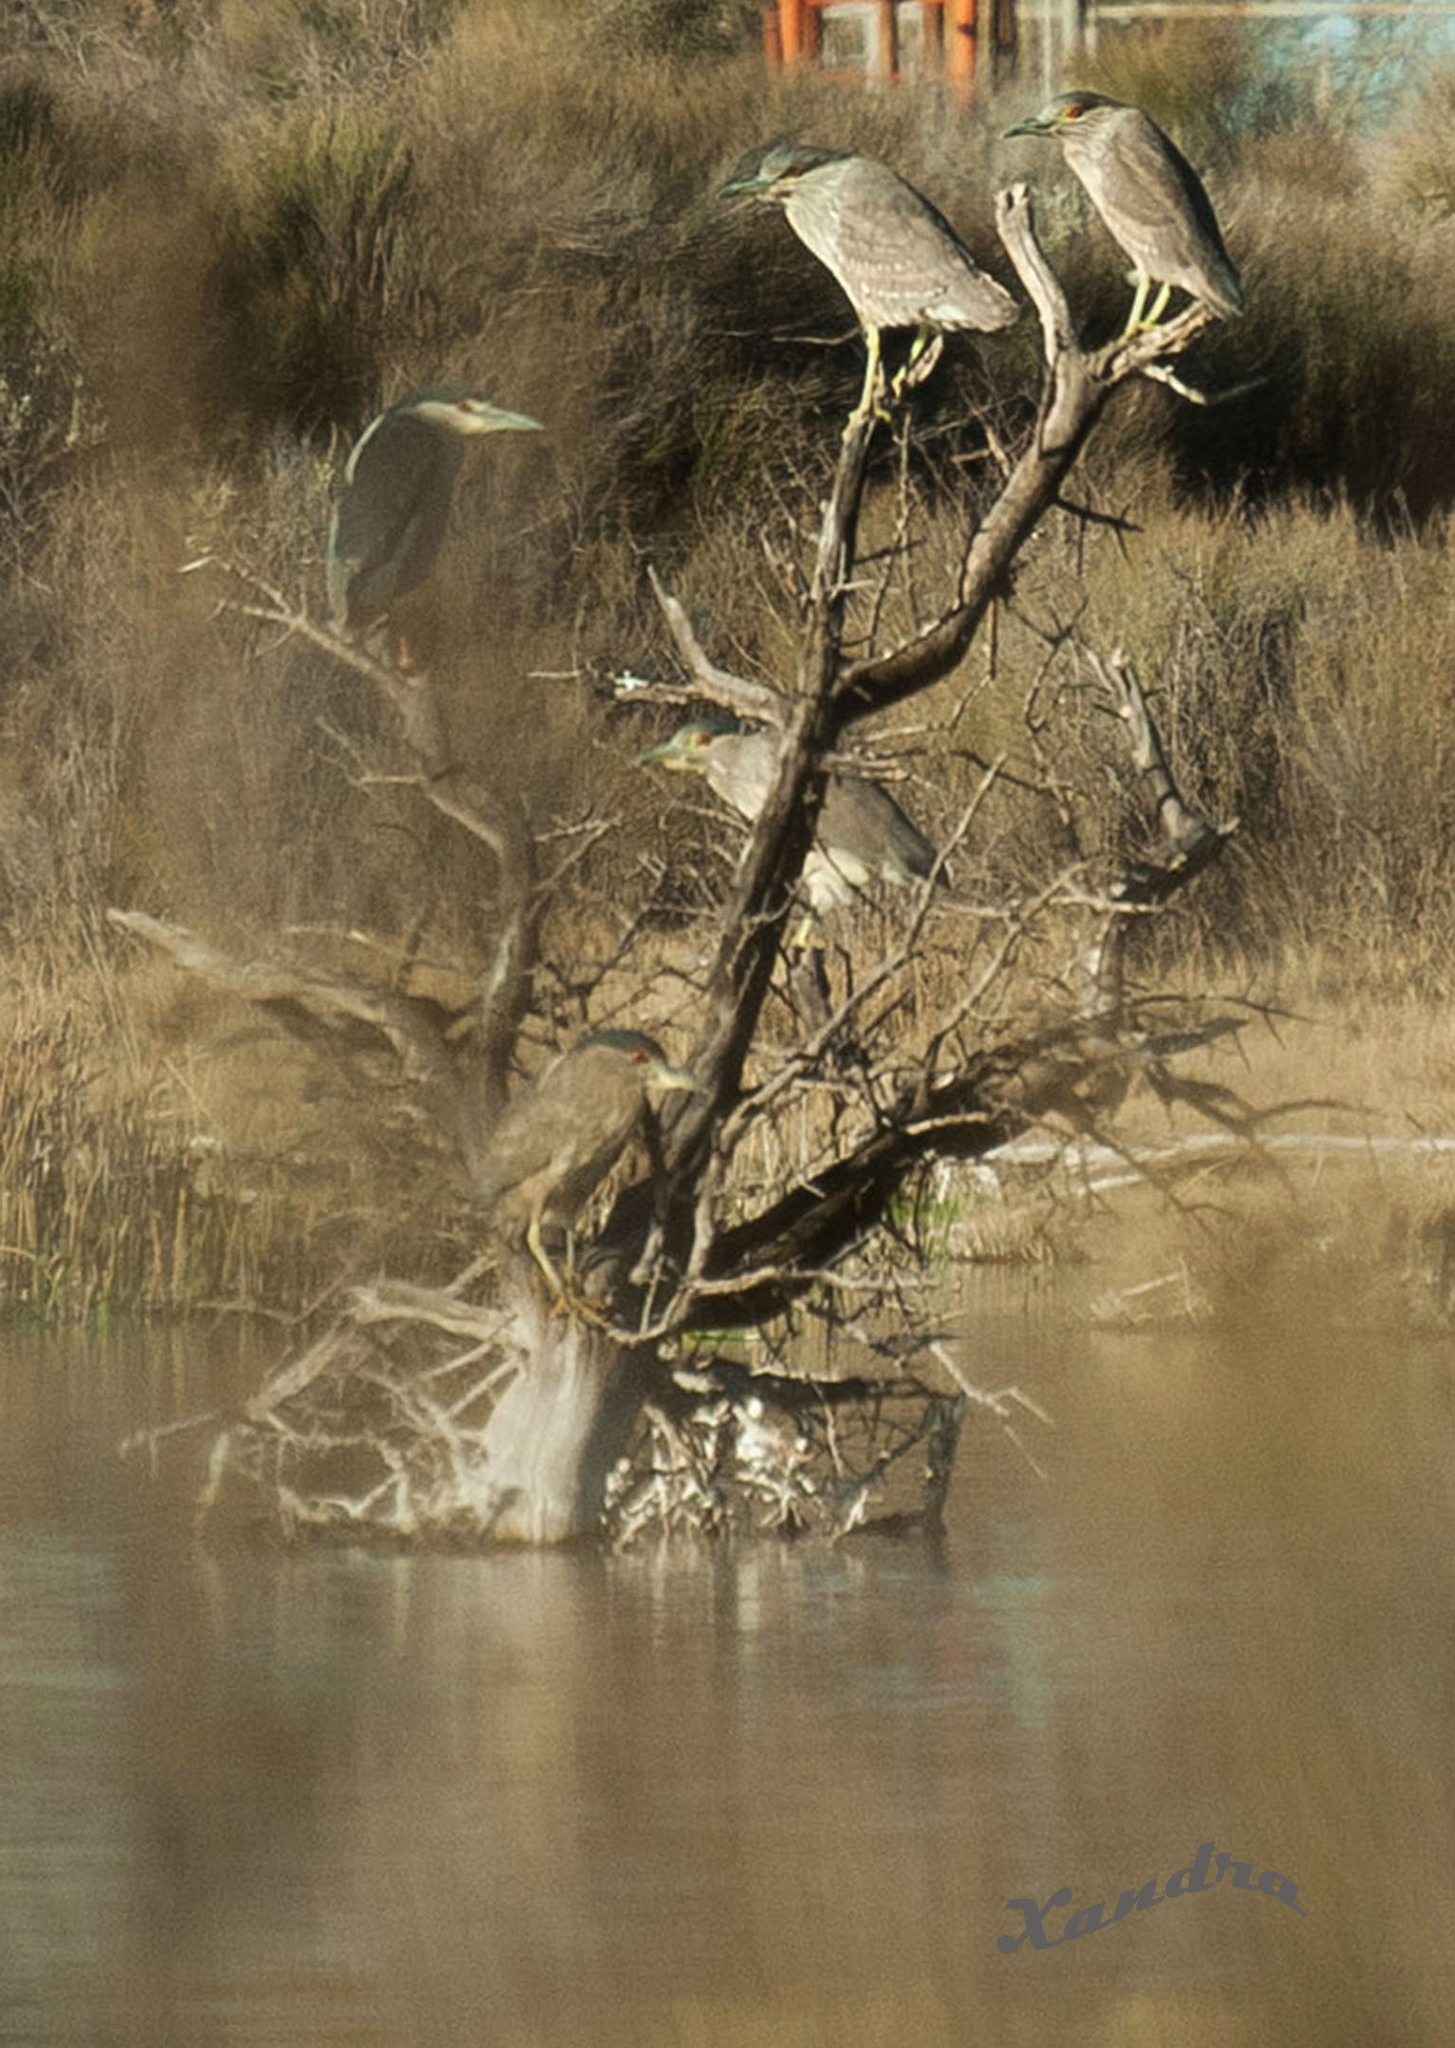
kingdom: Animalia
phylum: Chordata
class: Aves
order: Pelecaniformes
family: Ardeidae
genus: Nycticorax
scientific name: Nycticorax nycticorax
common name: Black-crowned night heron
